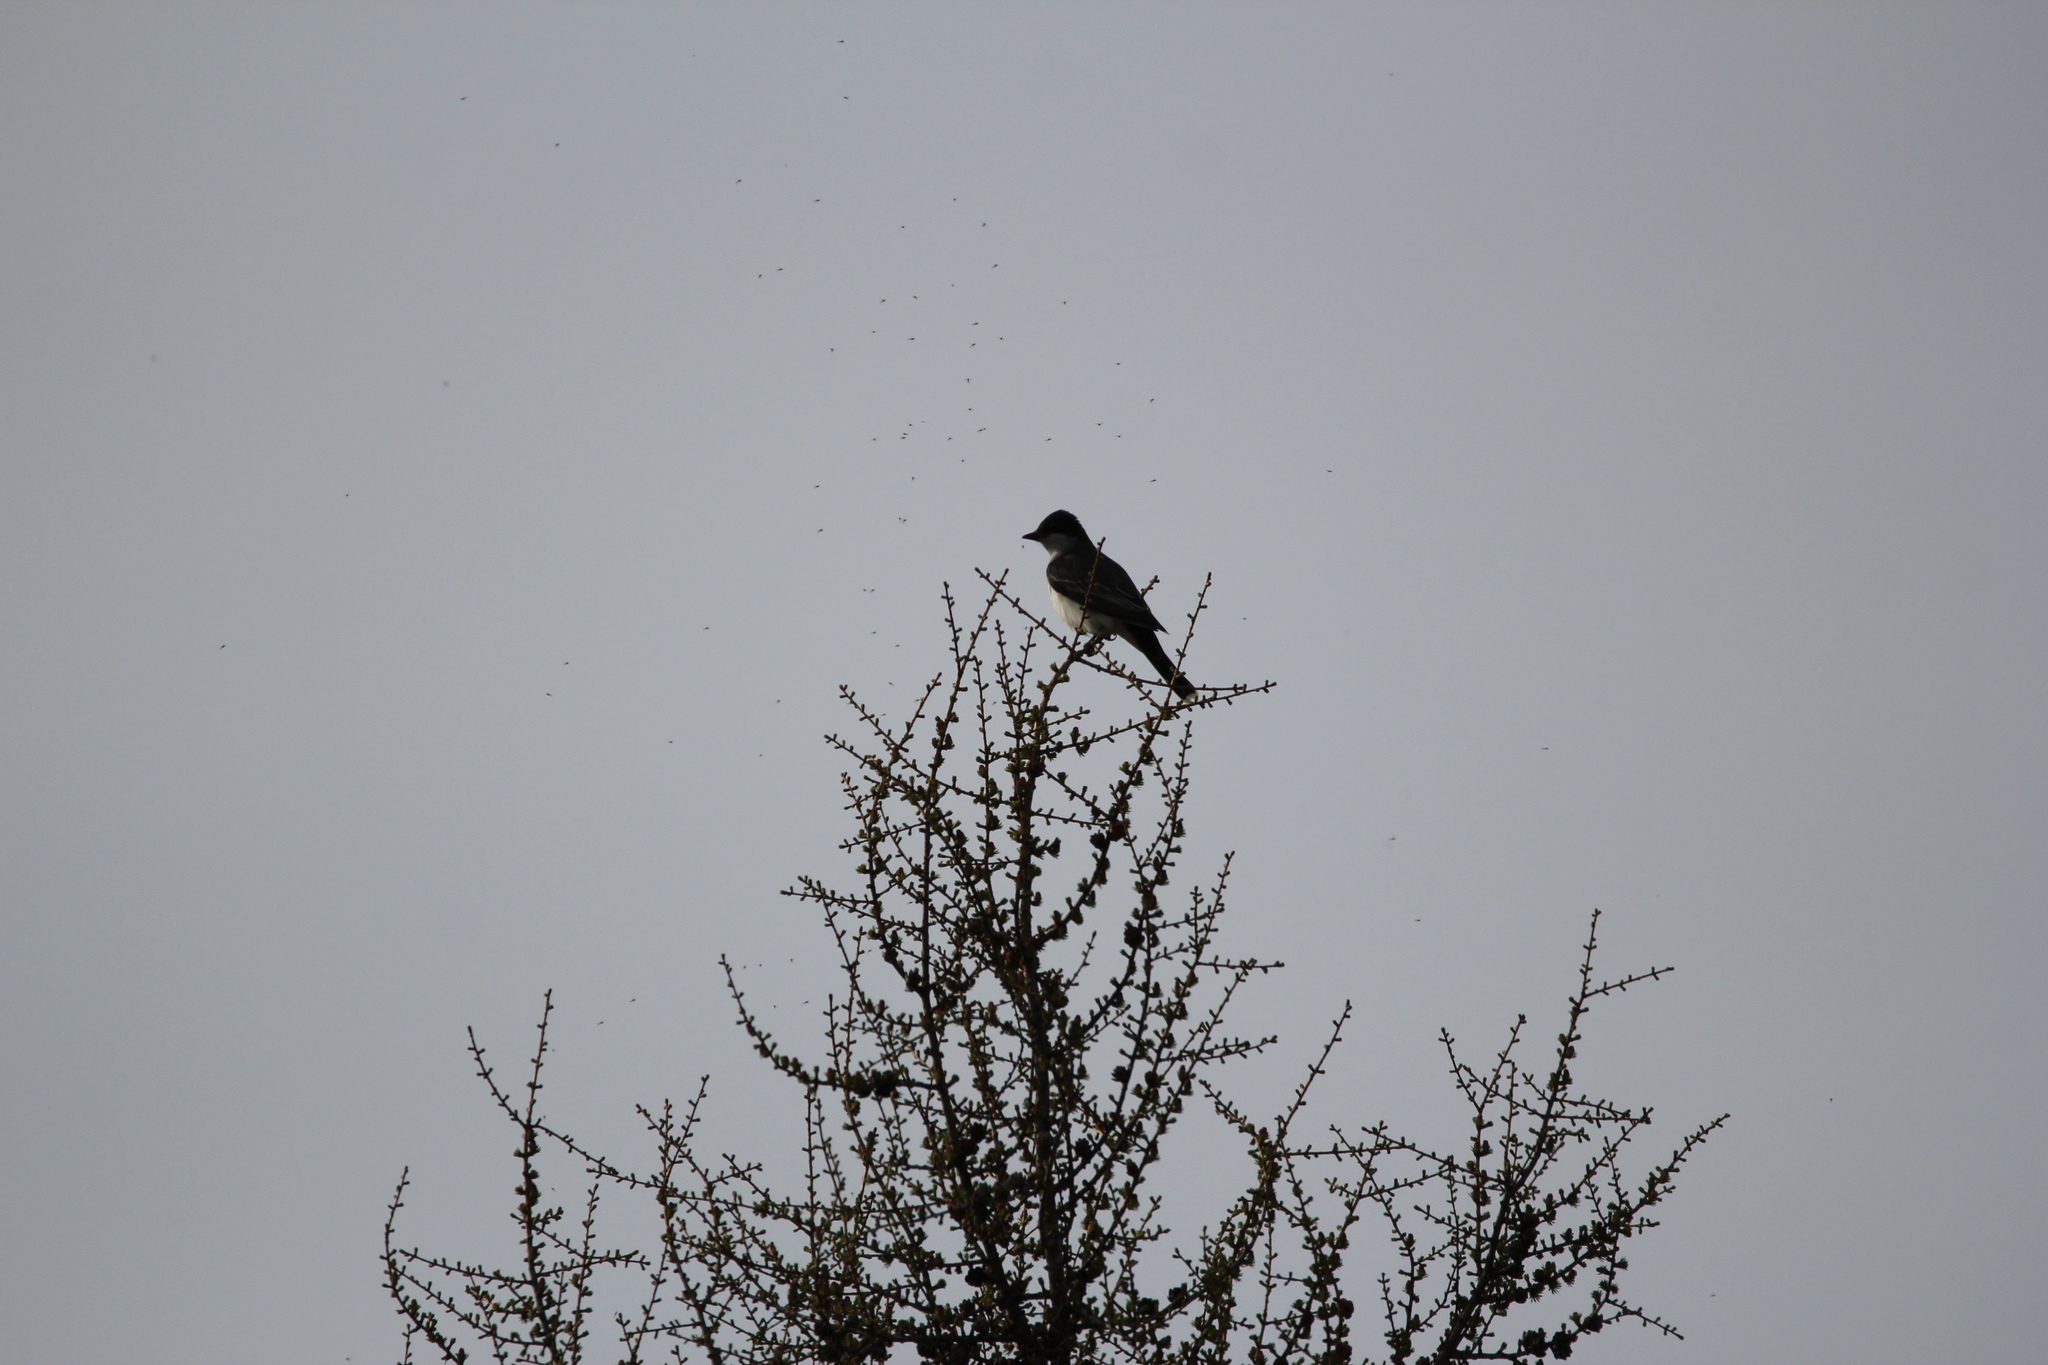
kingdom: Animalia
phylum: Chordata
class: Aves
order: Passeriformes
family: Tyrannidae
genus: Tyrannus
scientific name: Tyrannus tyrannus
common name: Eastern kingbird
